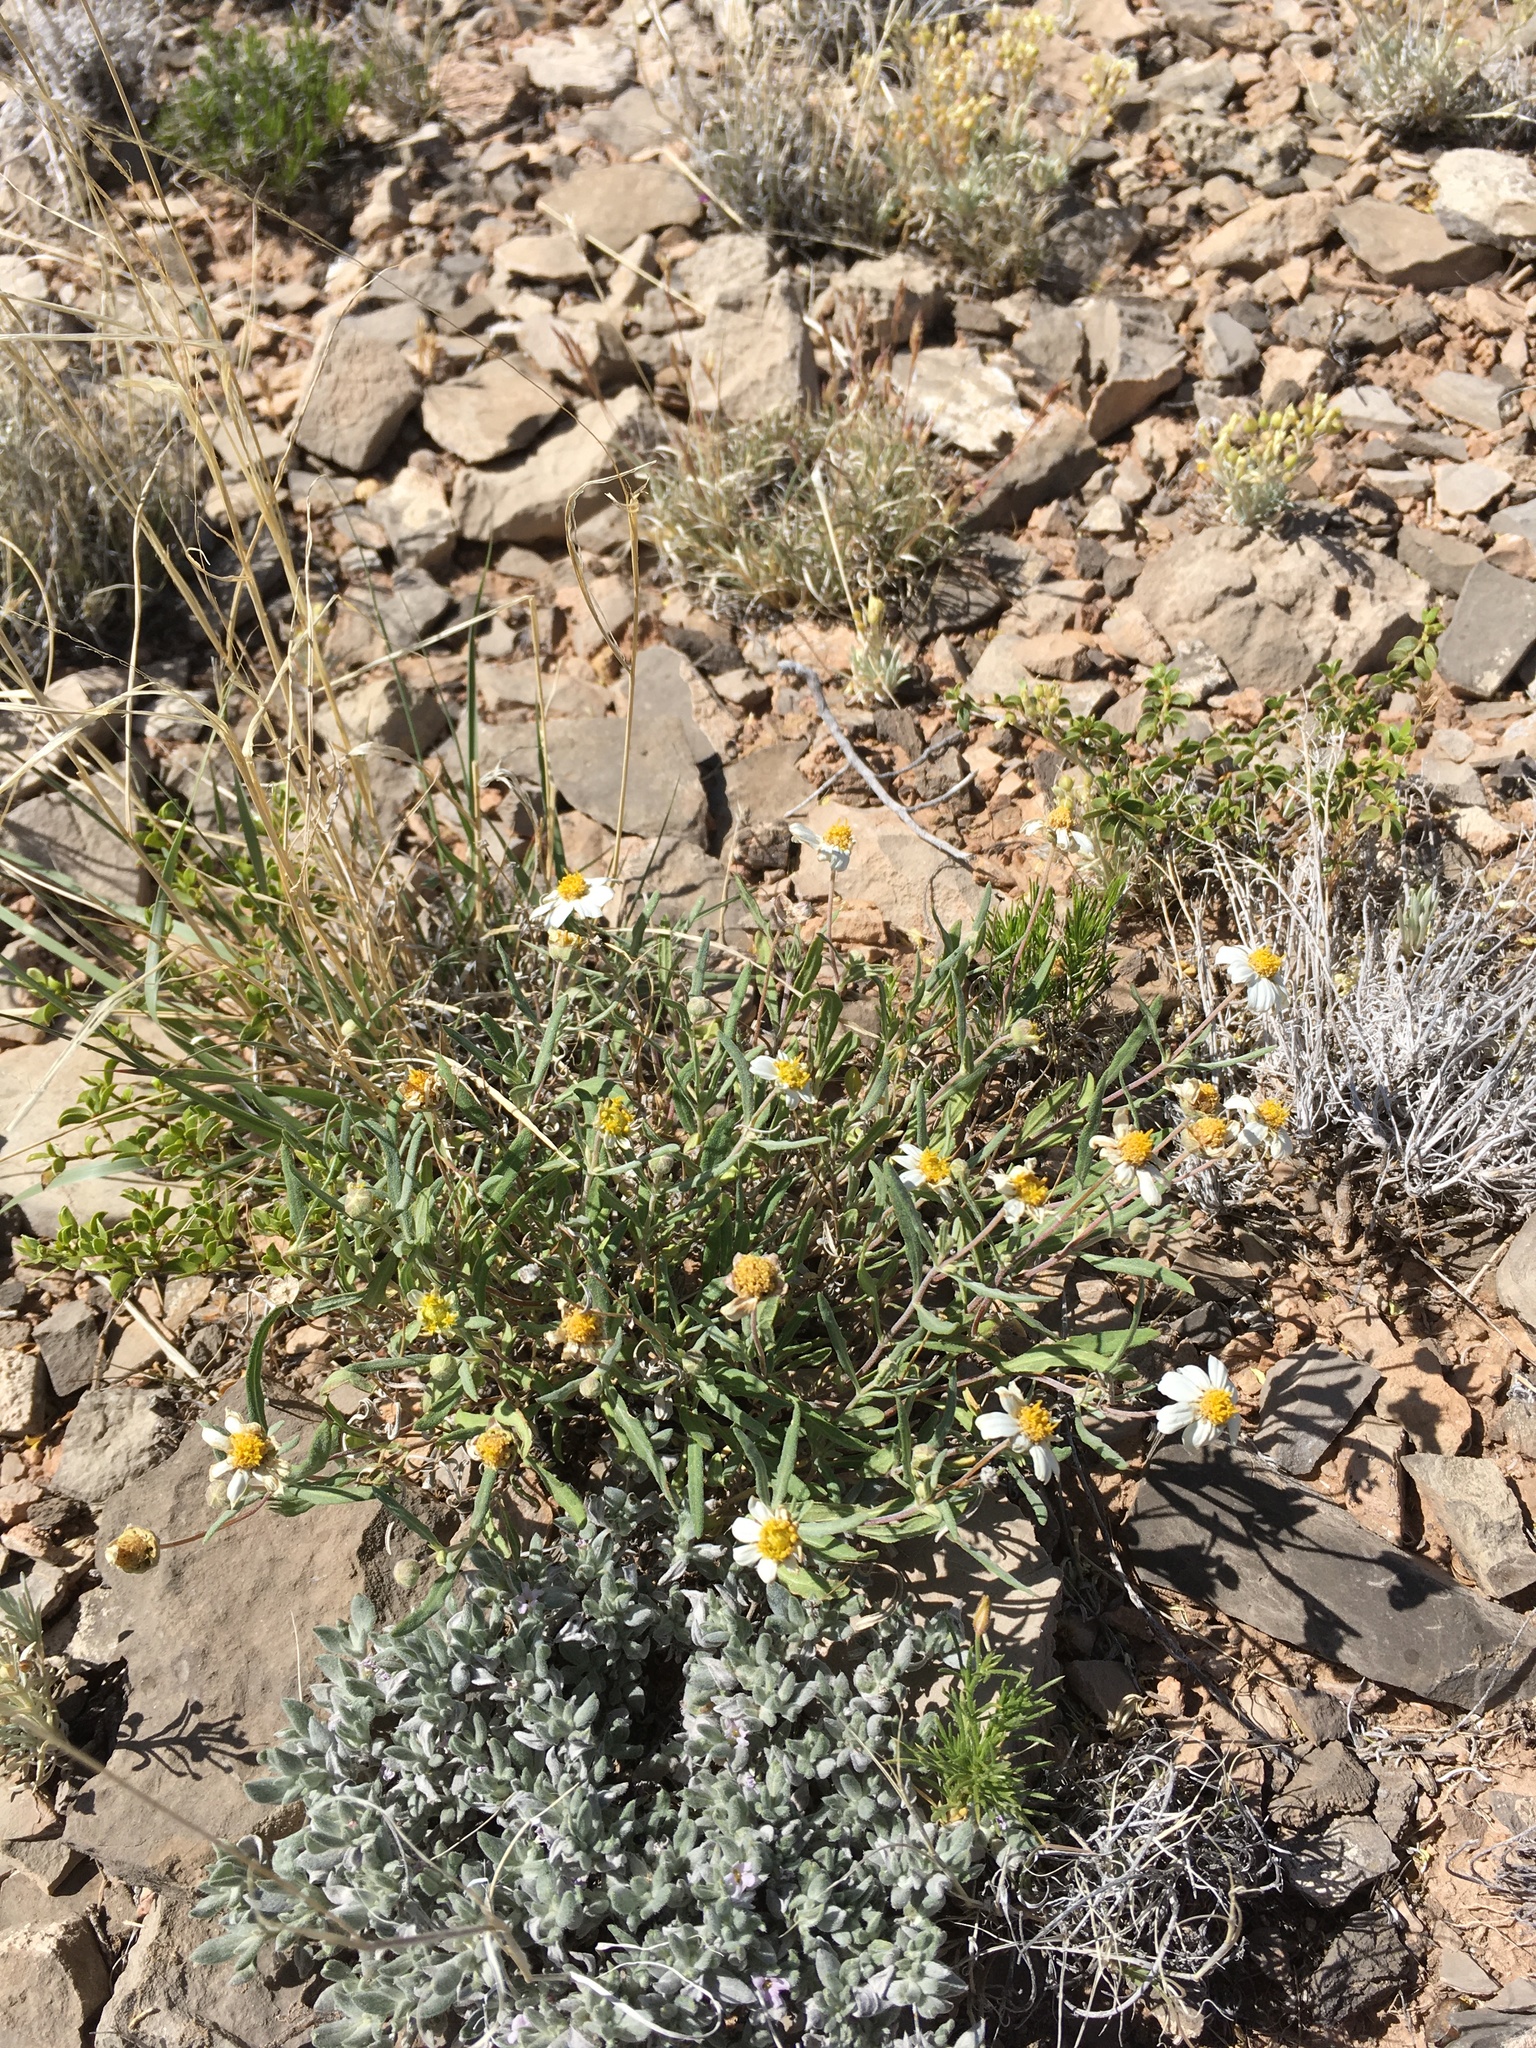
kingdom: Plantae
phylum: Tracheophyta
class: Magnoliopsida
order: Asterales
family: Asteraceae
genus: Melampodium
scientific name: Melampodium leucanthum
